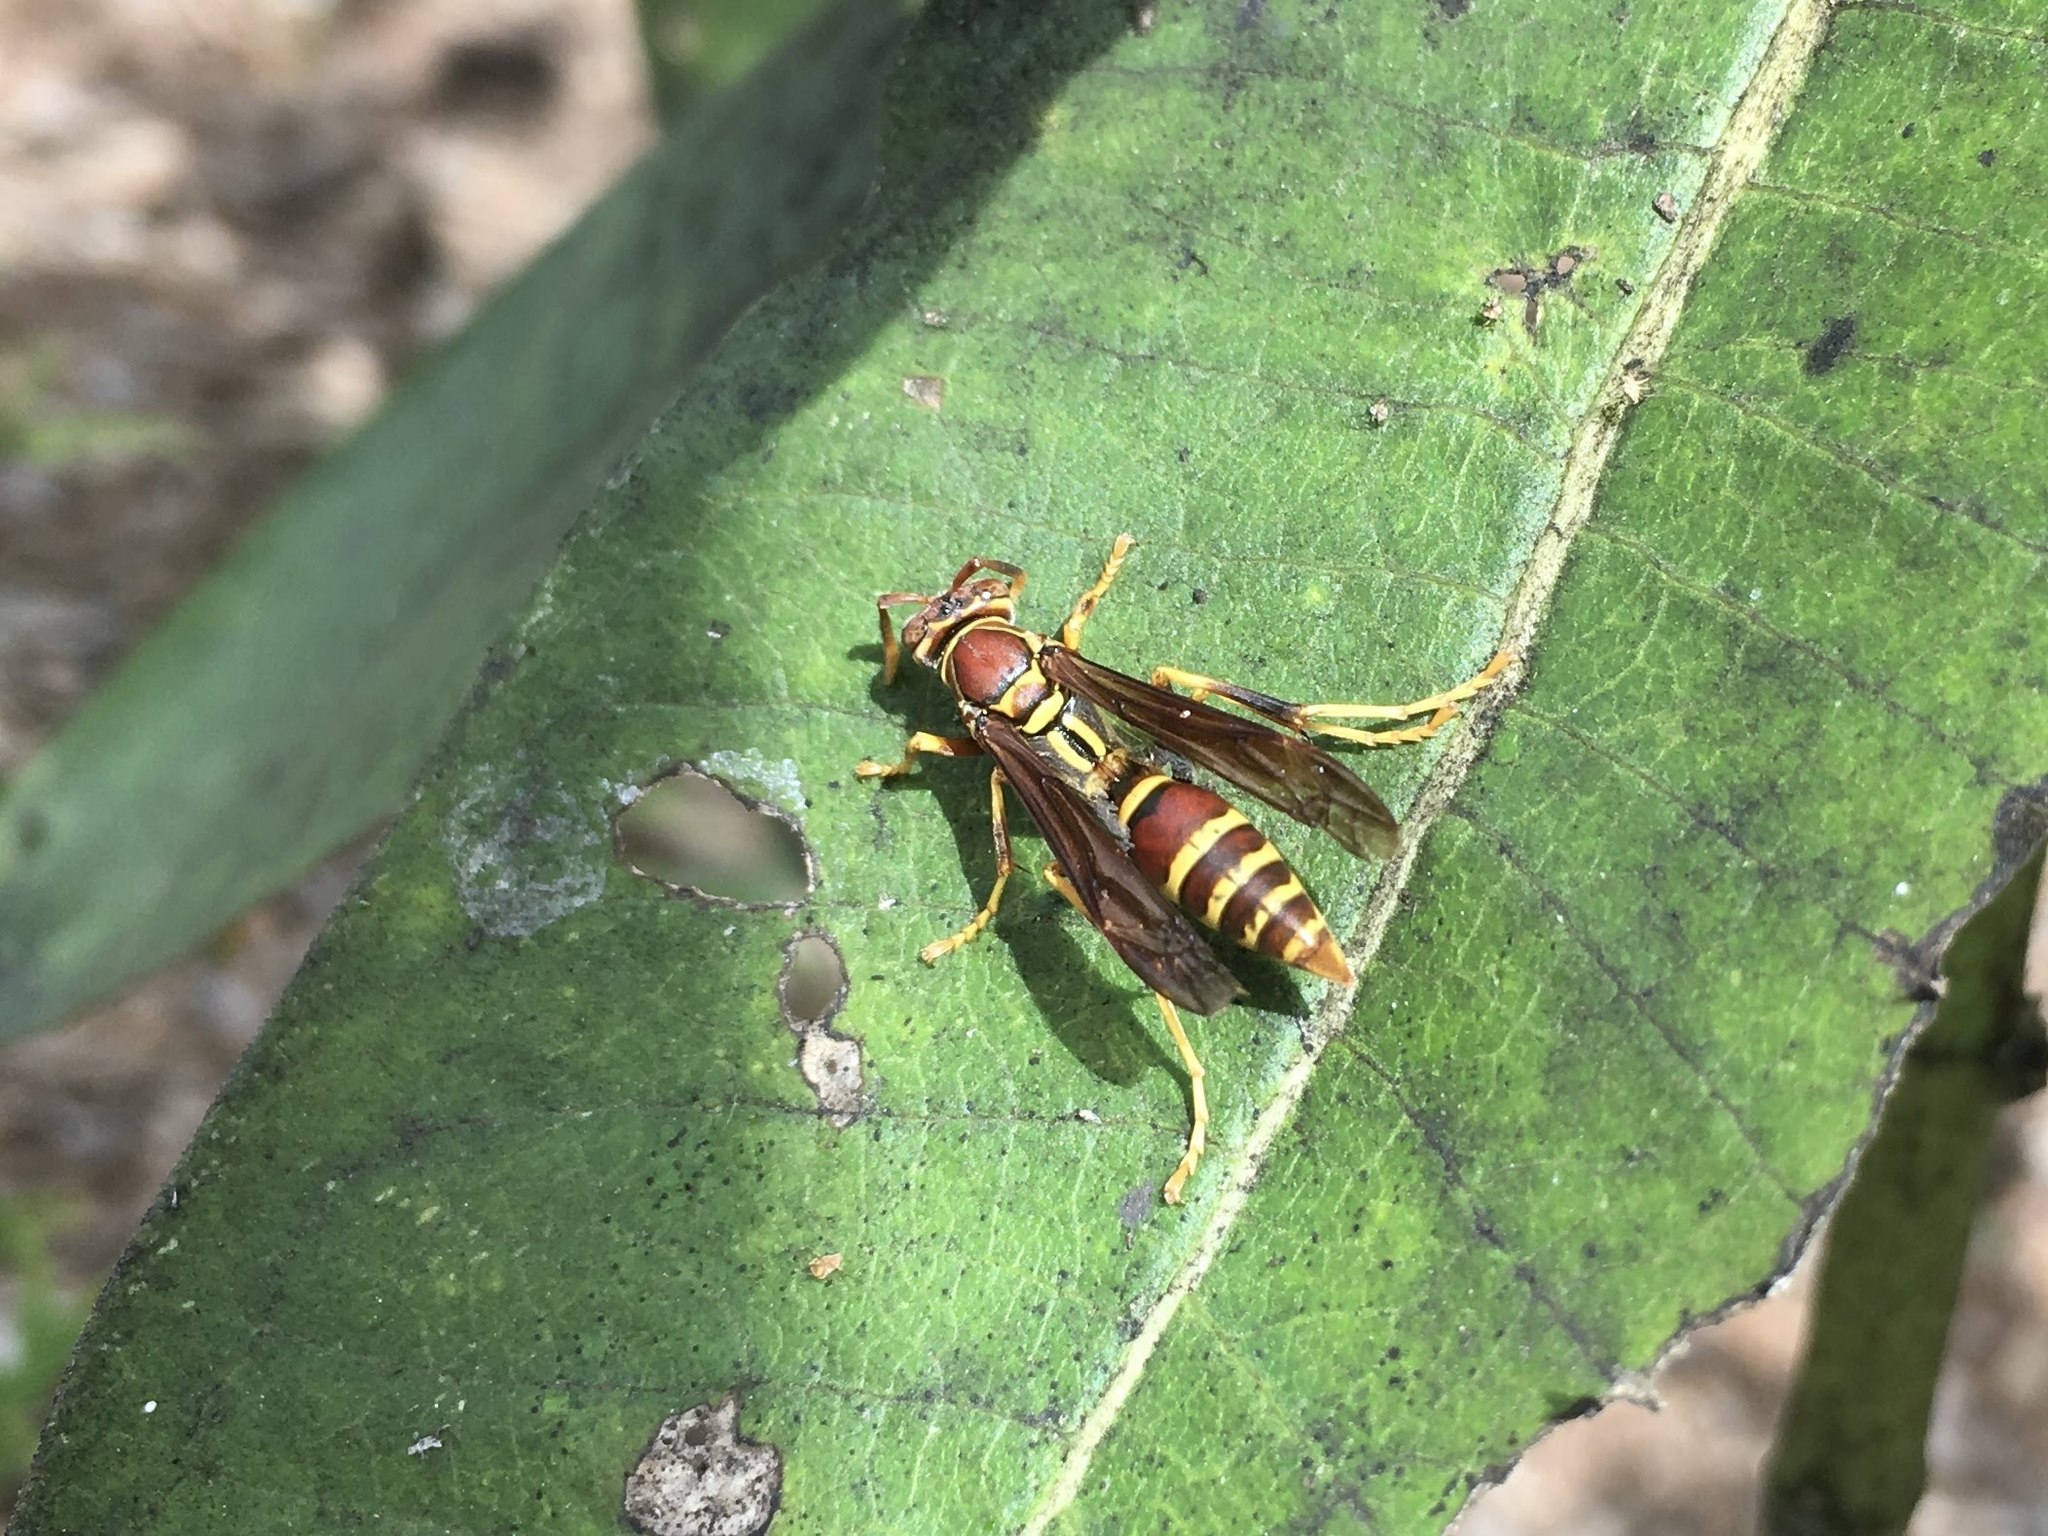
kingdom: Animalia
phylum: Arthropoda
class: Insecta
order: Hymenoptera
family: Eumenidae
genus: Polistes
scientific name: Polistes exclamans
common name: Paper wasp
